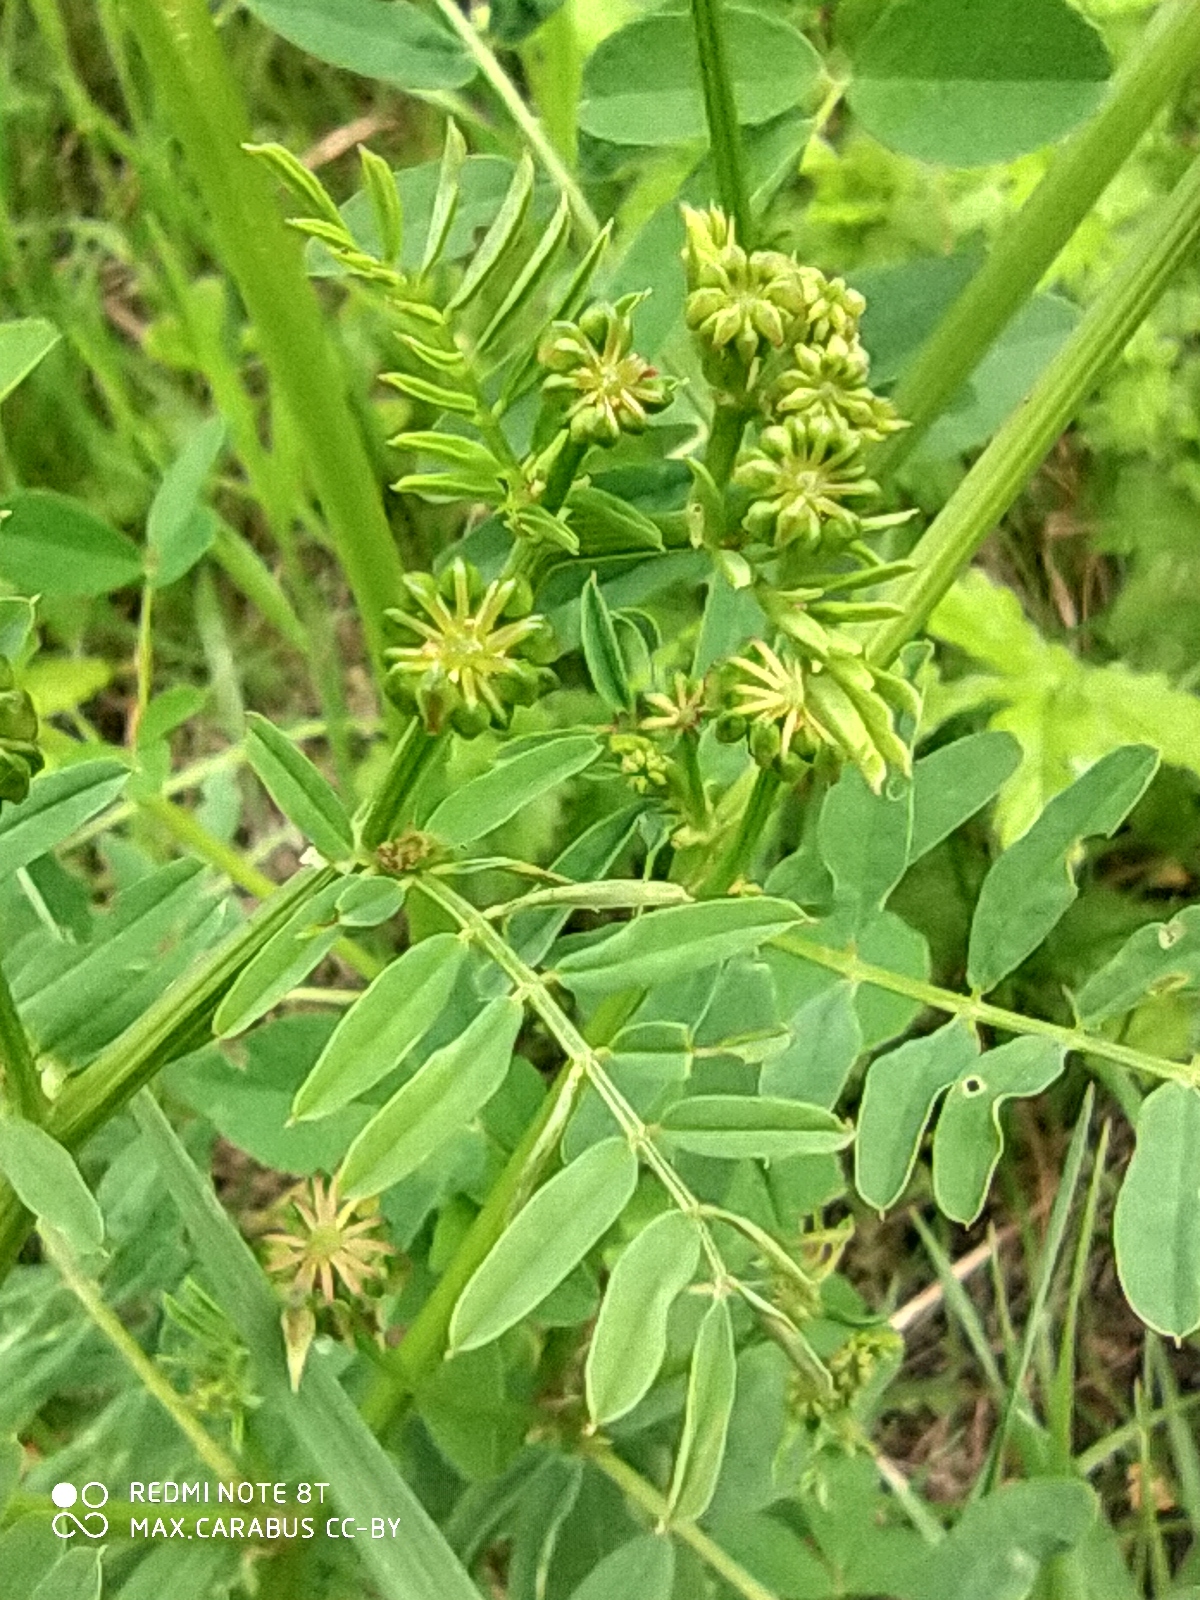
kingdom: Plantae
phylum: Tracheophyta
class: Magnoliopsida
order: Fabales
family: Fabaceae
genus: Coronilla
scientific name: Coronilla varia
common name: Crownvetch
